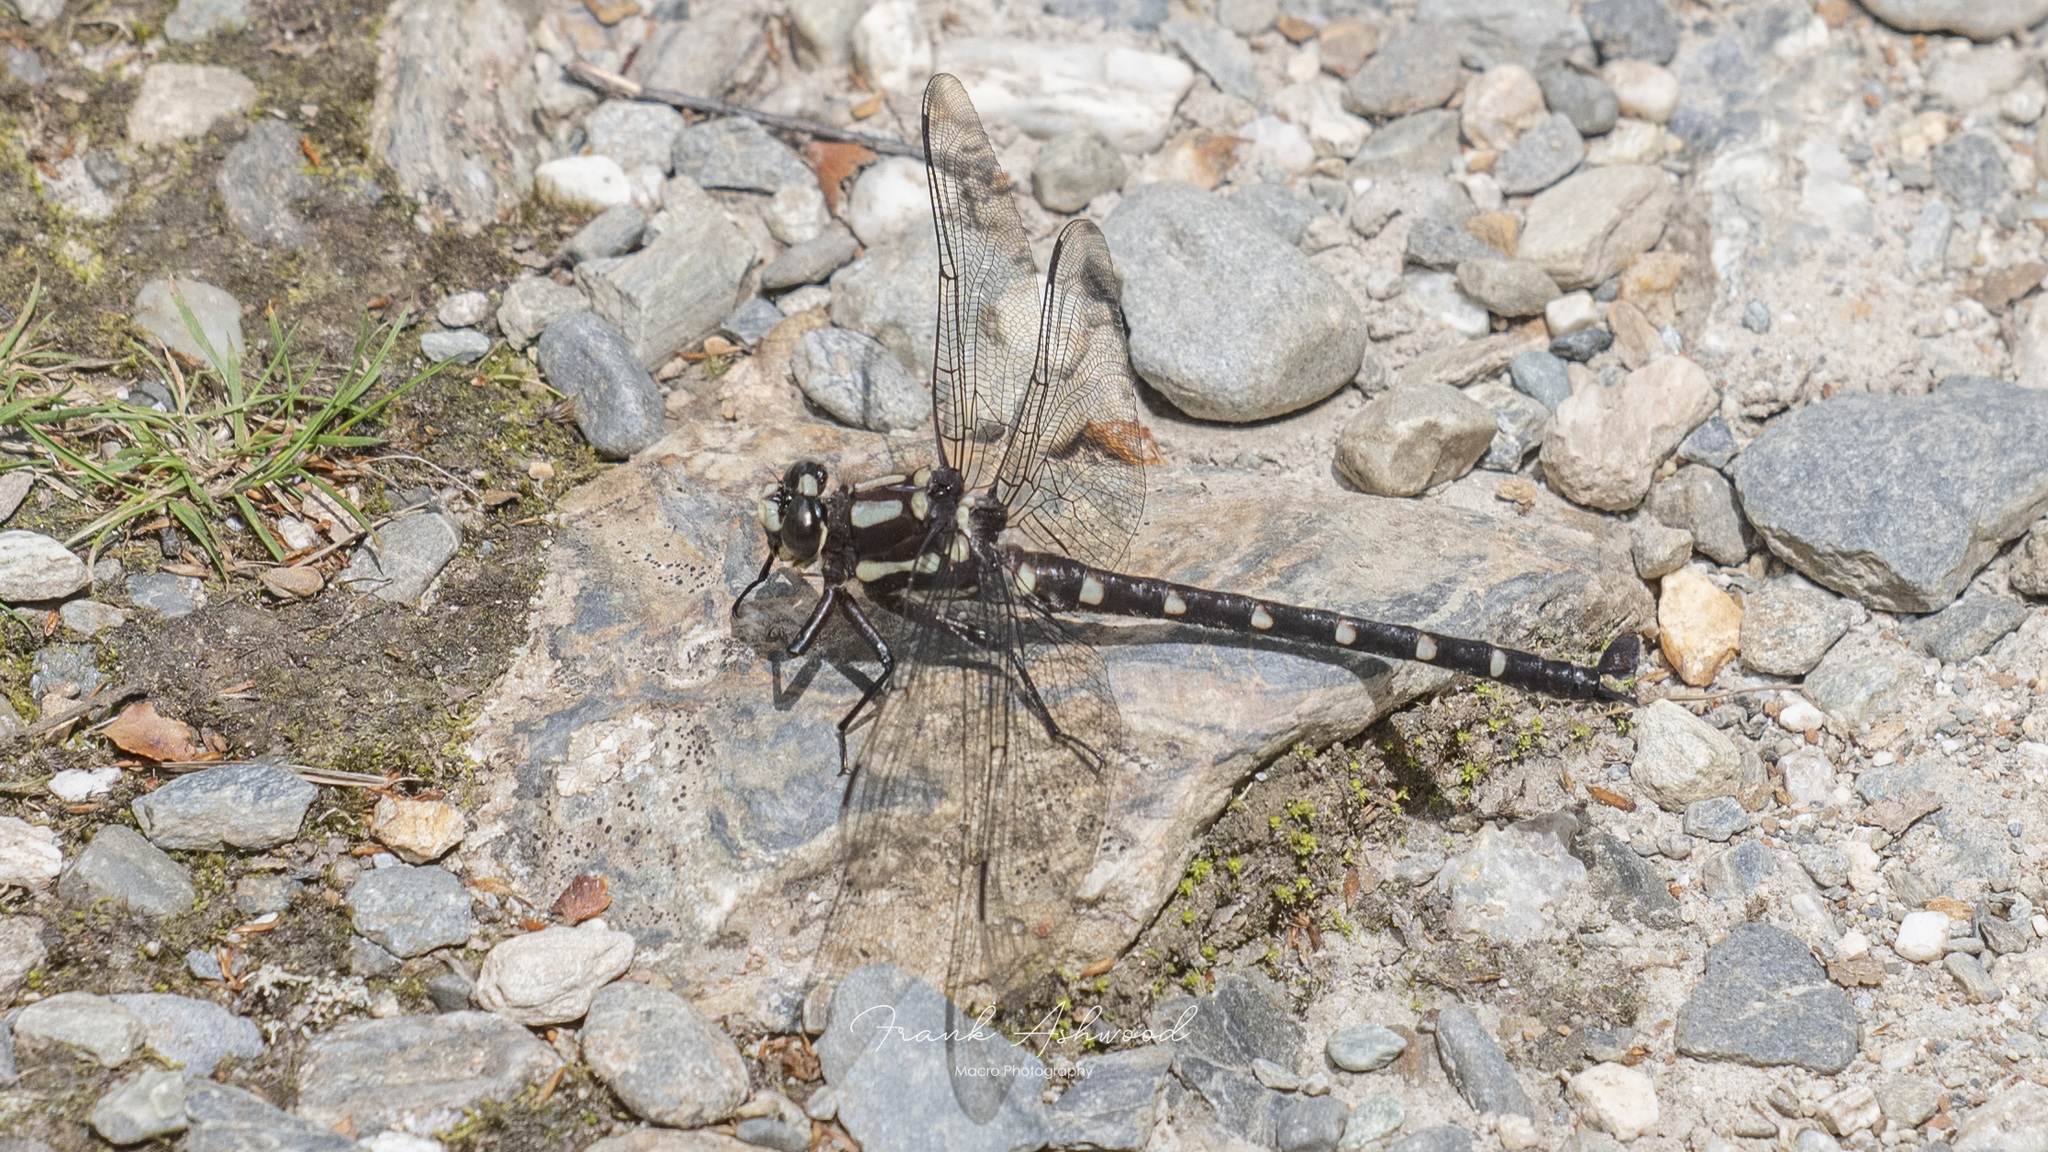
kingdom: Animalia
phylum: Arthropoda
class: Insecta
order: Odonata
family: Petaluridae
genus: Uropetala
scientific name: Uropetala carovei
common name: Bush giant dragonfly
